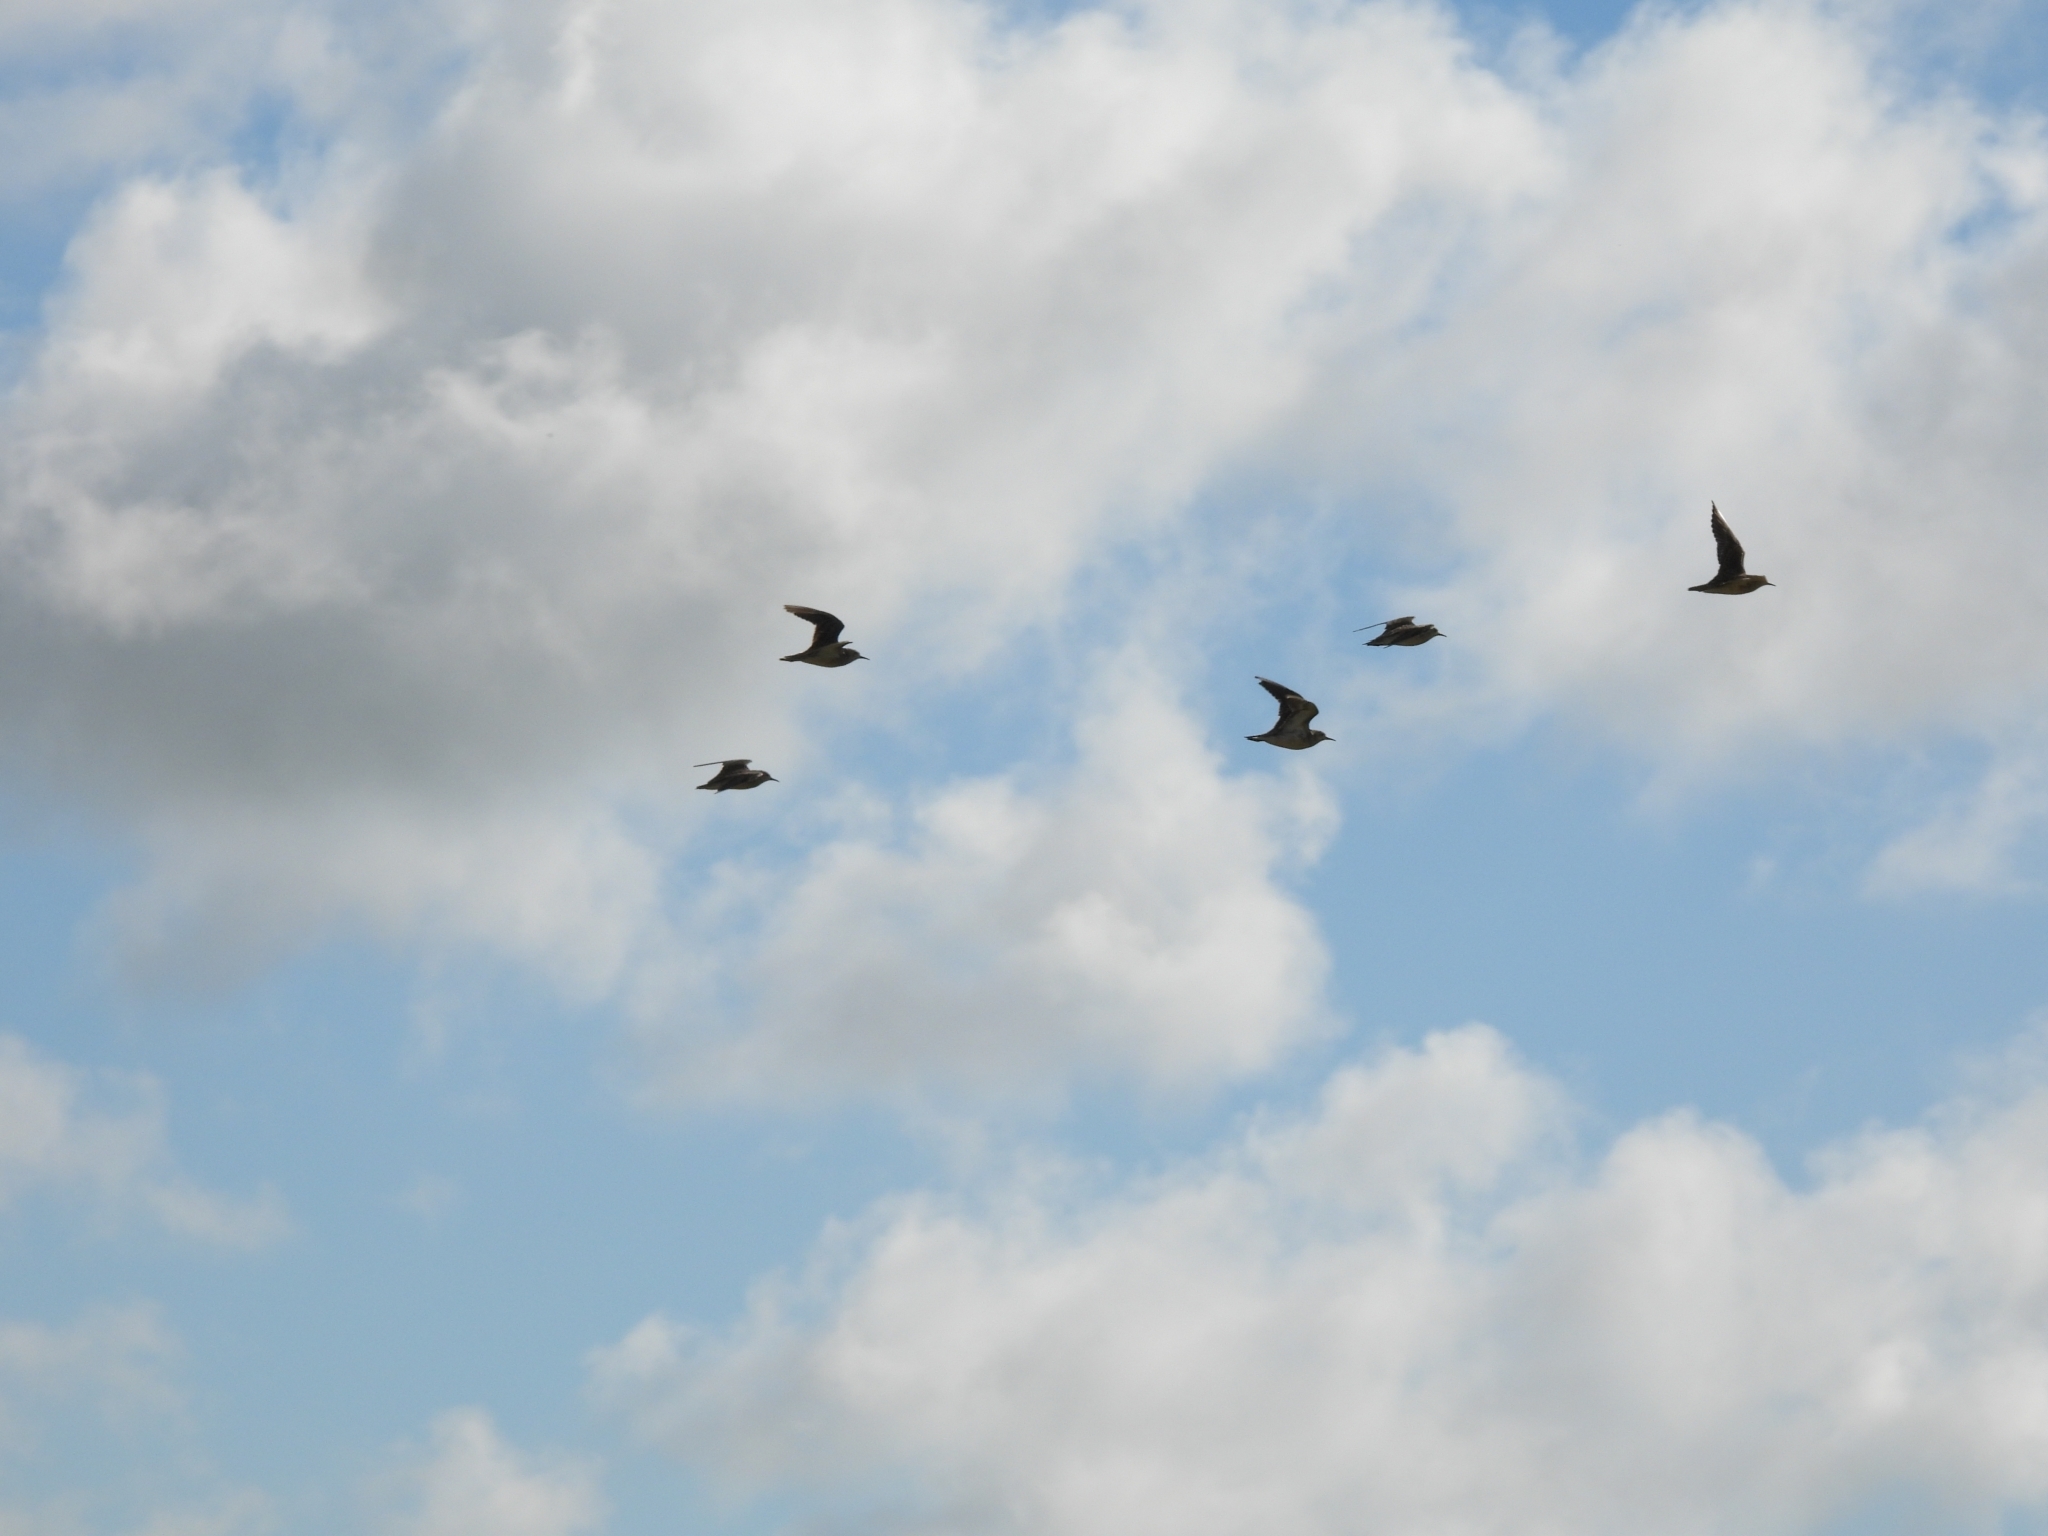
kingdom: Animalia
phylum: Chordata
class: Aves
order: Charadriiformes
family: Scolopacidae
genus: Calidris
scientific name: Calidris subruficollis
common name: Buff-breasted sandpiper
